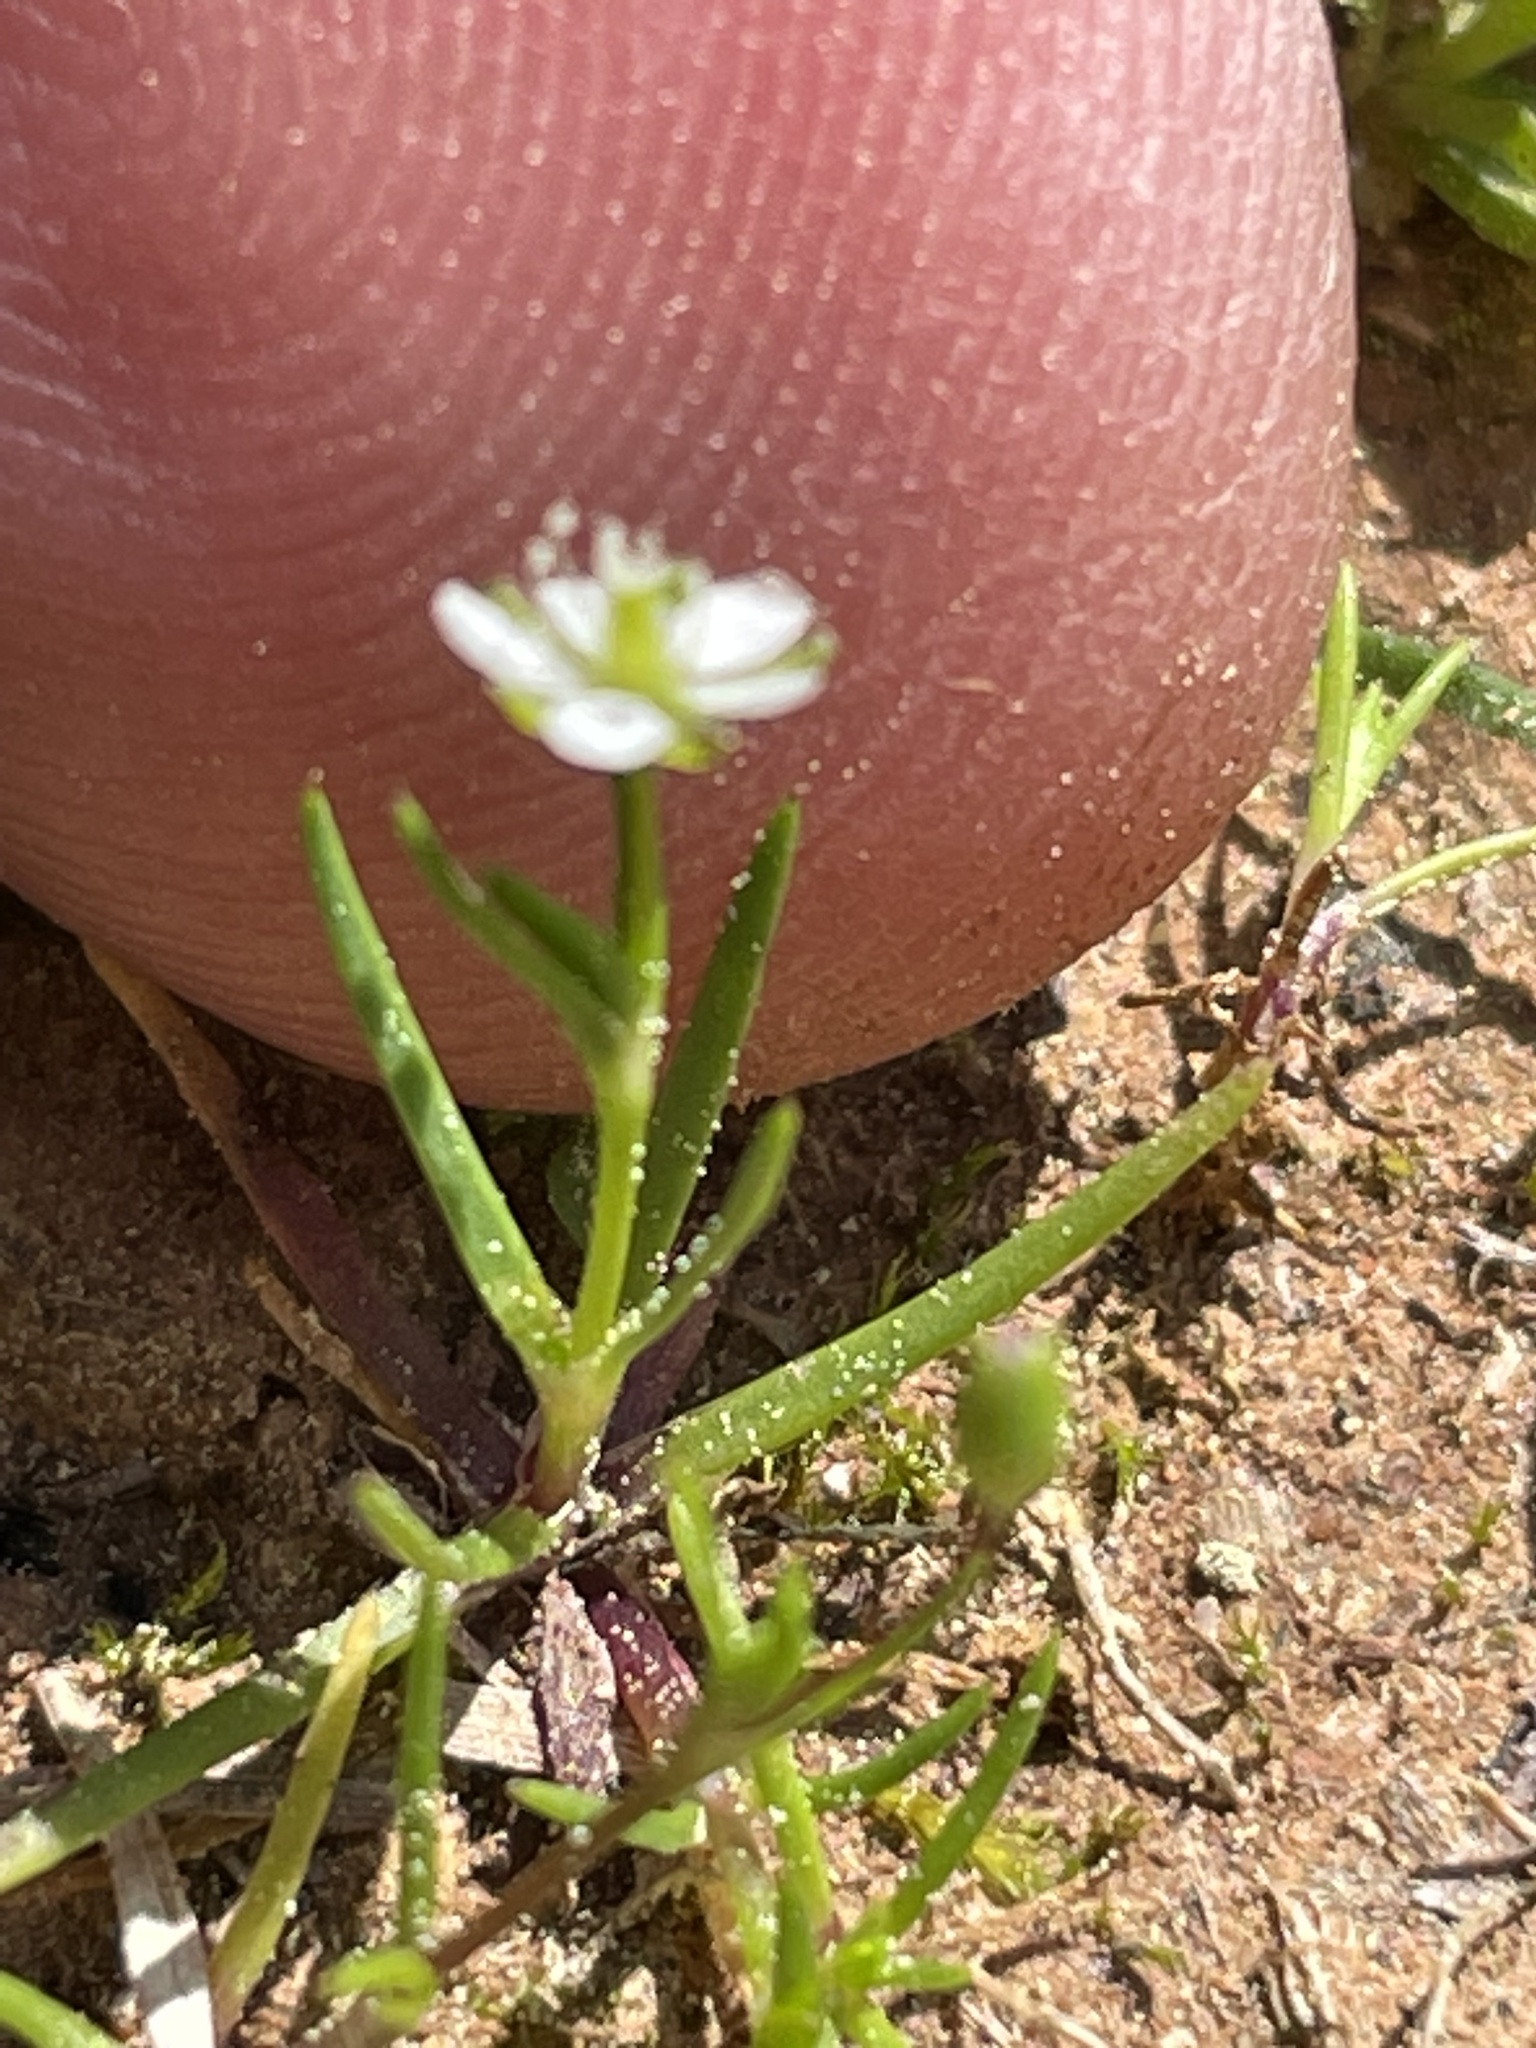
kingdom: Plantae
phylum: Tracheophyta
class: Magnoliopsida
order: Caryophyllales
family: Caryophyllaceae
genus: Sagina
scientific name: Sagina decumbens
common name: Decumbent pearlwort
